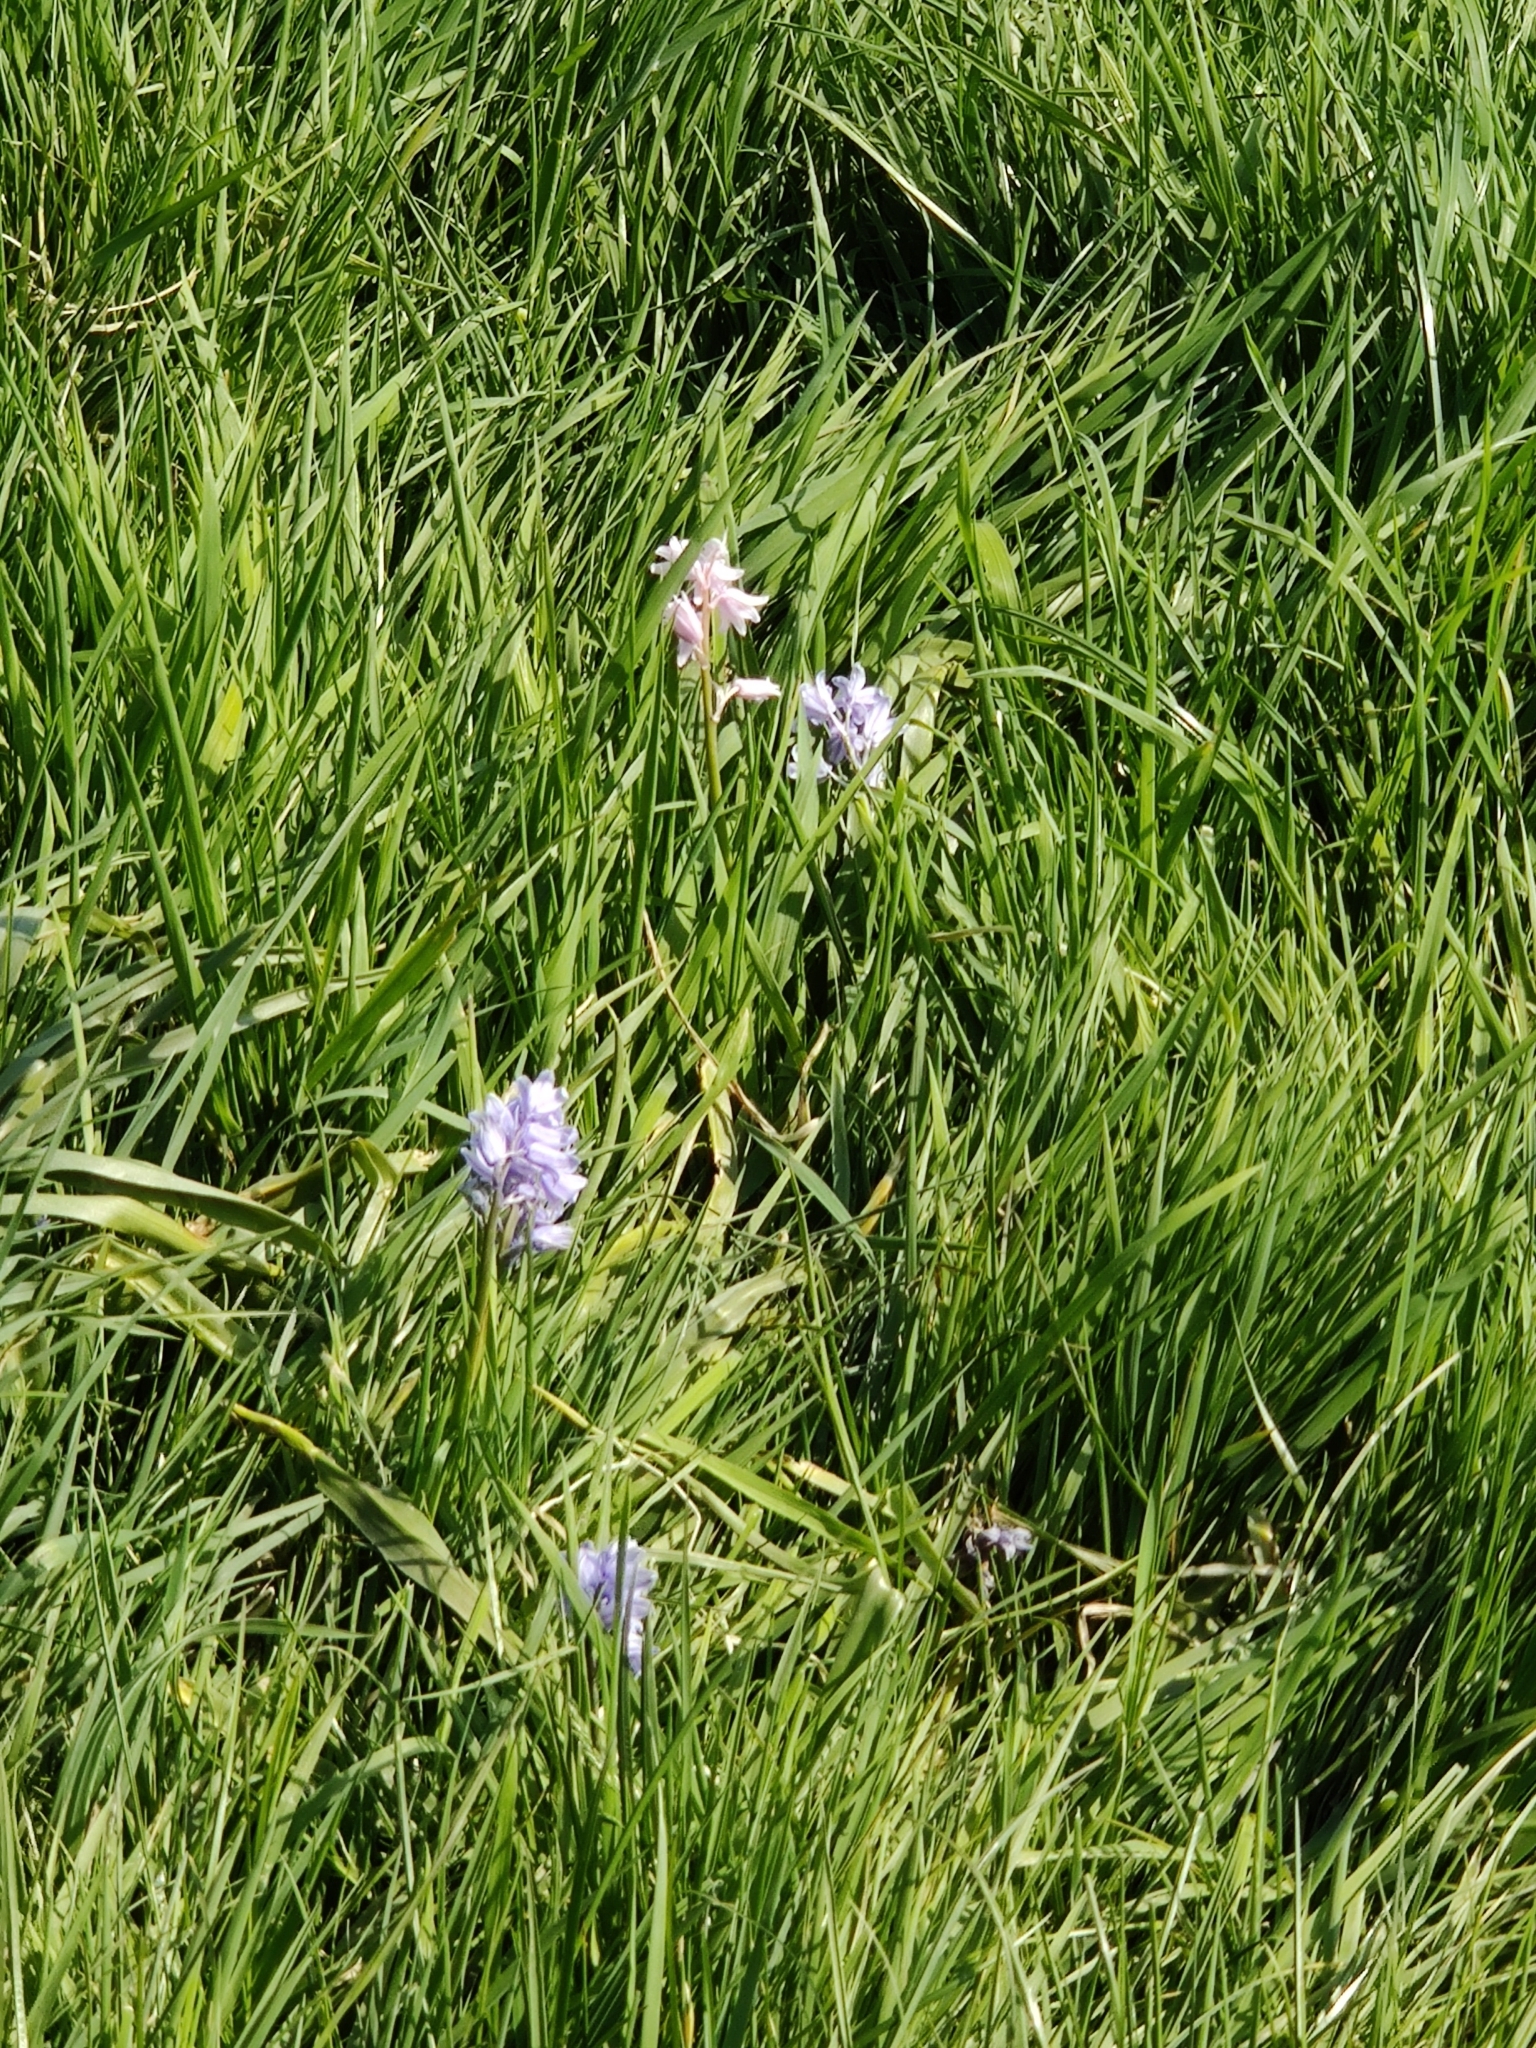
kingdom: Plantae
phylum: Tracheophyta
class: Liliopsida
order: Asparagales
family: Asparagaceae
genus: Hyacinthoides
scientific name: Hyacinthoides hispanica
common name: Spanish bluebell
